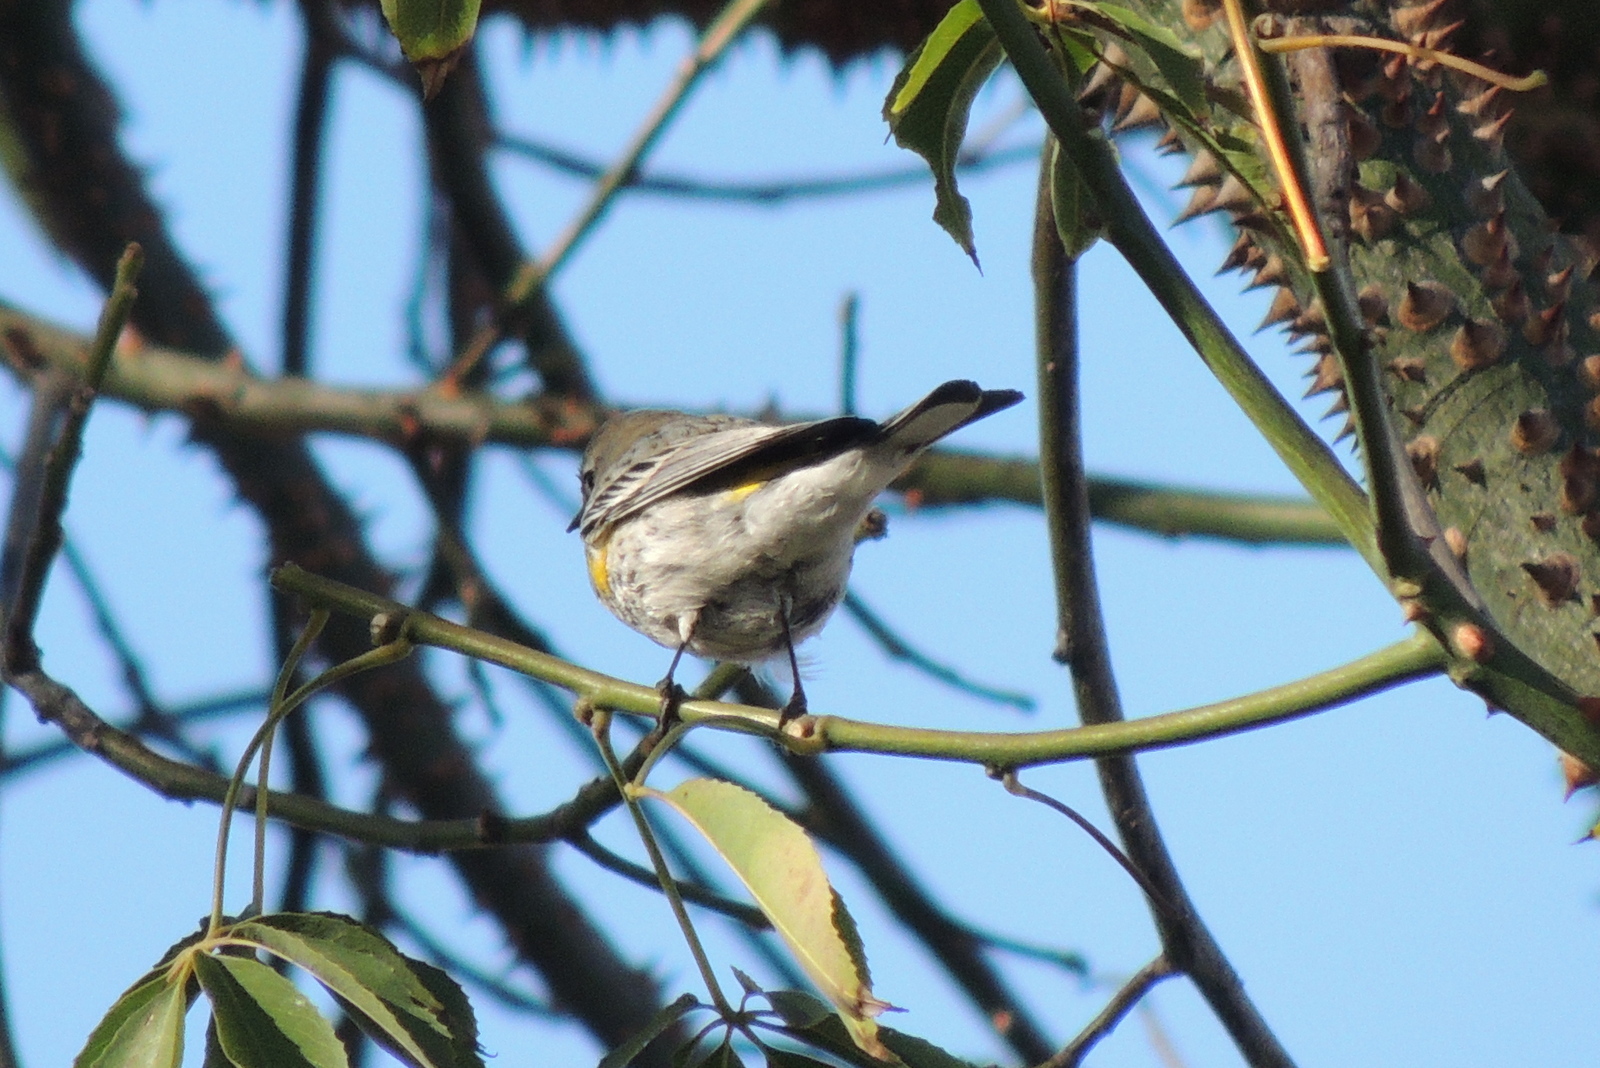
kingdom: Animalia
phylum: Chordata
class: Aves
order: Passeriformes
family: Parulidae
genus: Setophaga
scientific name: Setophaga coronata
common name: Myrtle warbler
